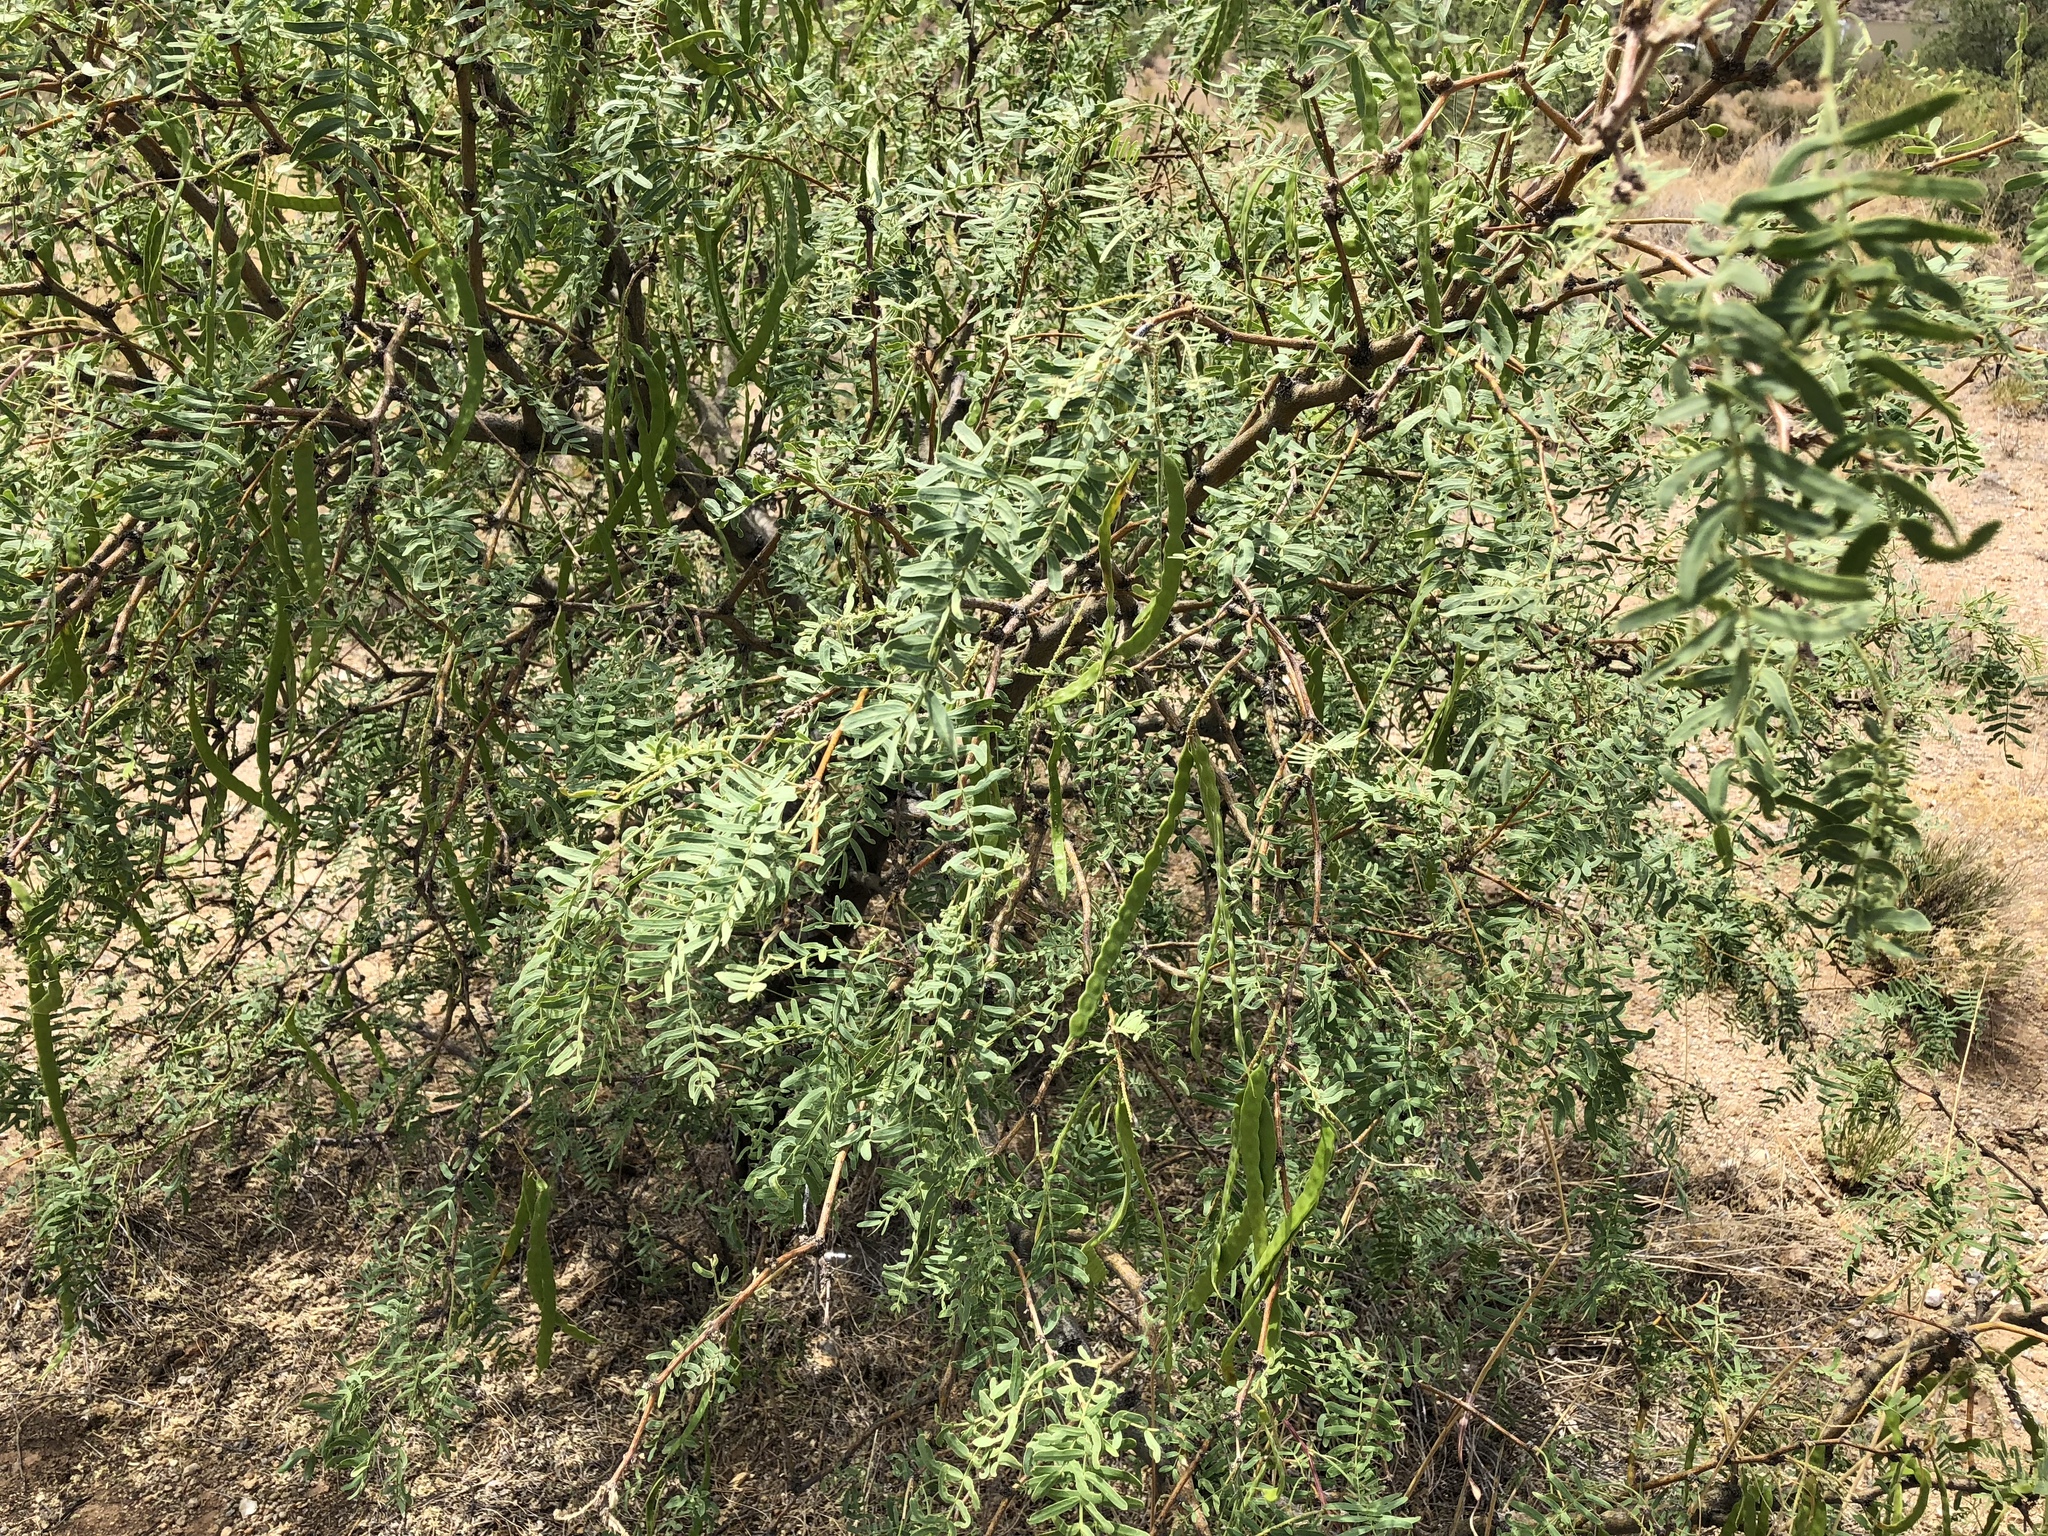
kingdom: Plantae
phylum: Tracheophyta
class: Magnoliopsida
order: Fabales
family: Fabaceae
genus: Prosopis
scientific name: Prosopis glandulosa
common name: Honey mesquite
